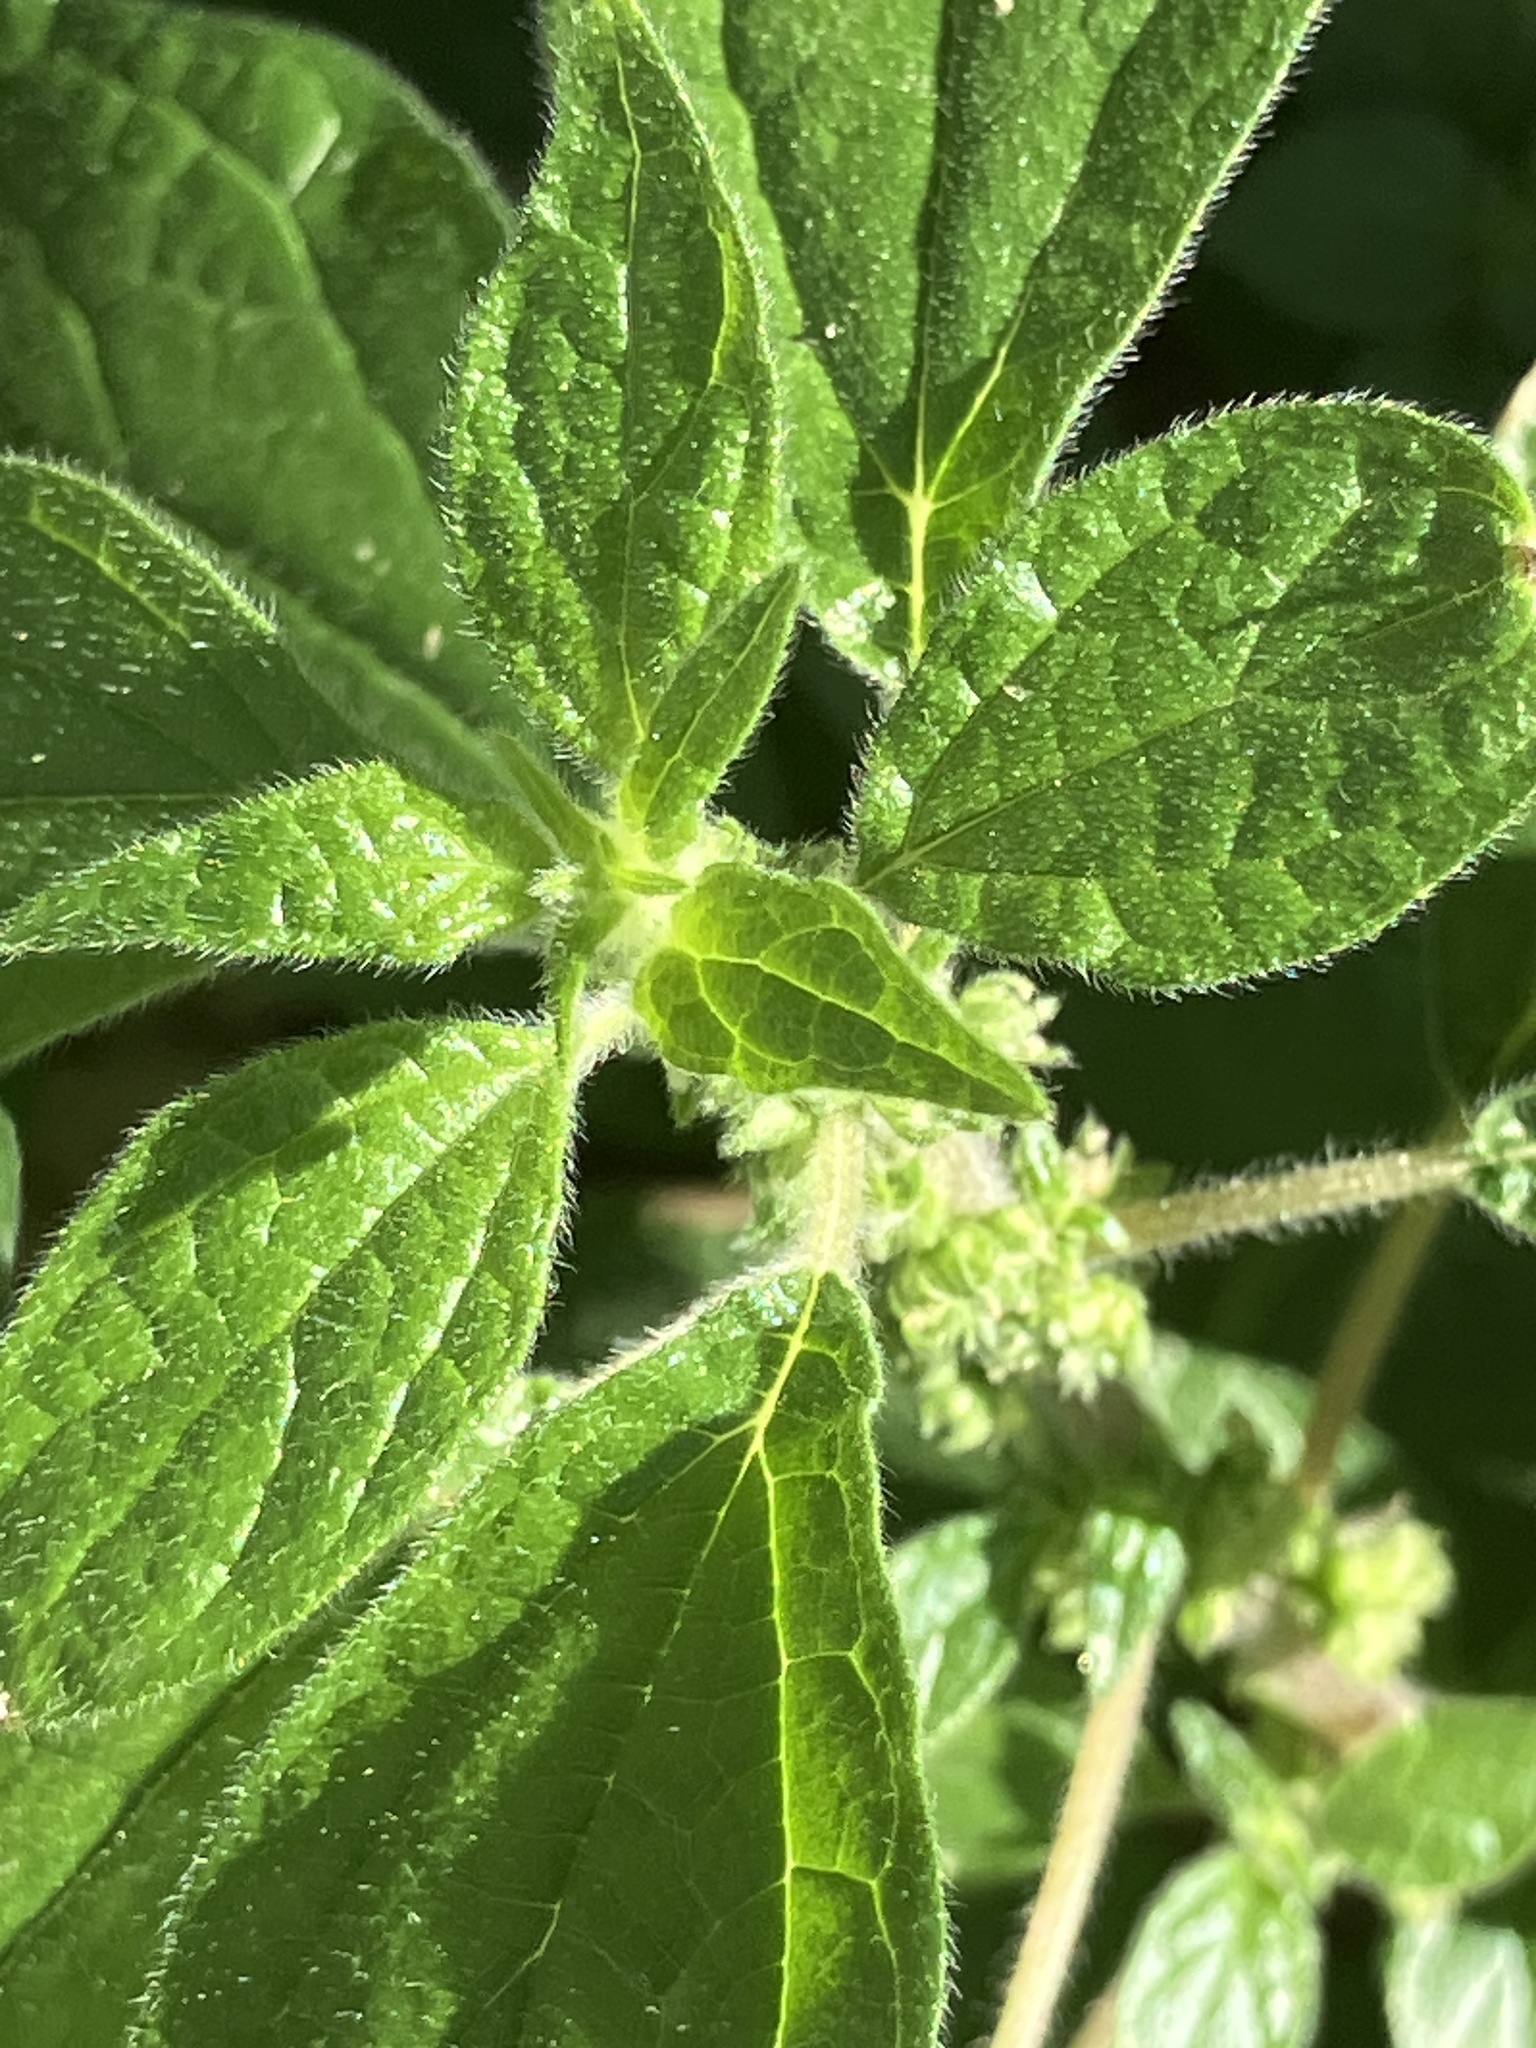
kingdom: Plantae
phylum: Tracheophyta
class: Magnoliopsida
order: Rosales
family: Urticaceae
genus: Parietaria
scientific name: Parietaria officinalis
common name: Eastern pellitory-of-the-wall
